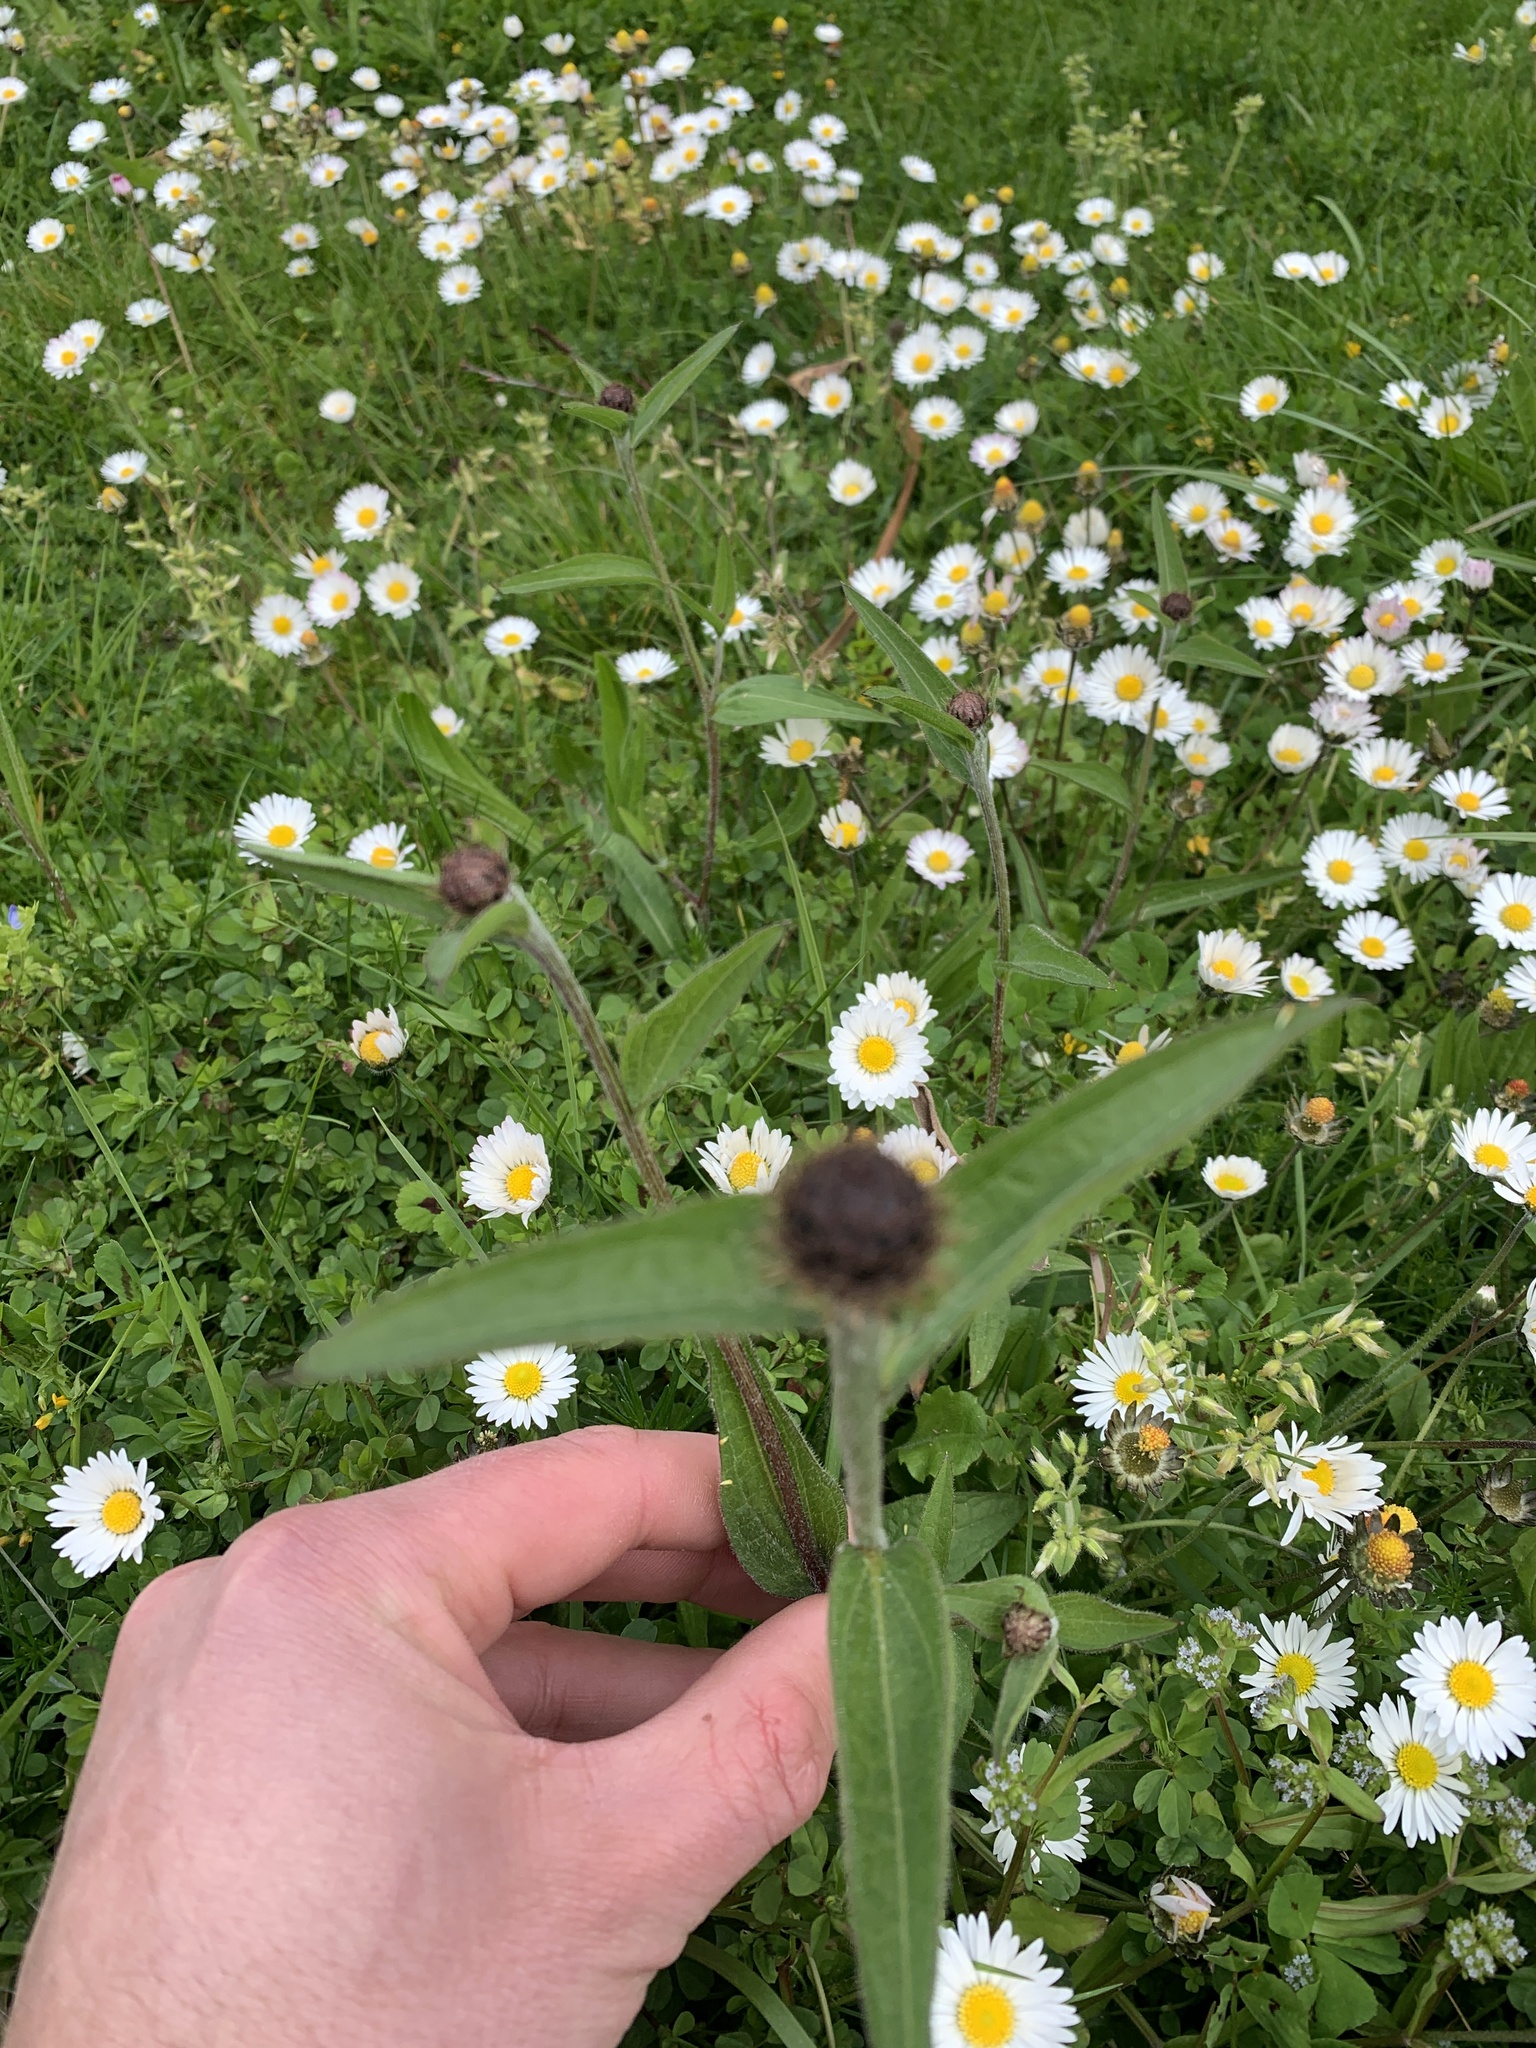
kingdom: Plantae
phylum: Tracheophyta
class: Magnoliopsida
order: Asterales
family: Asteraceae
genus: Centaurea
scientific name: Centaurea nigra
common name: Lesser knapweed
